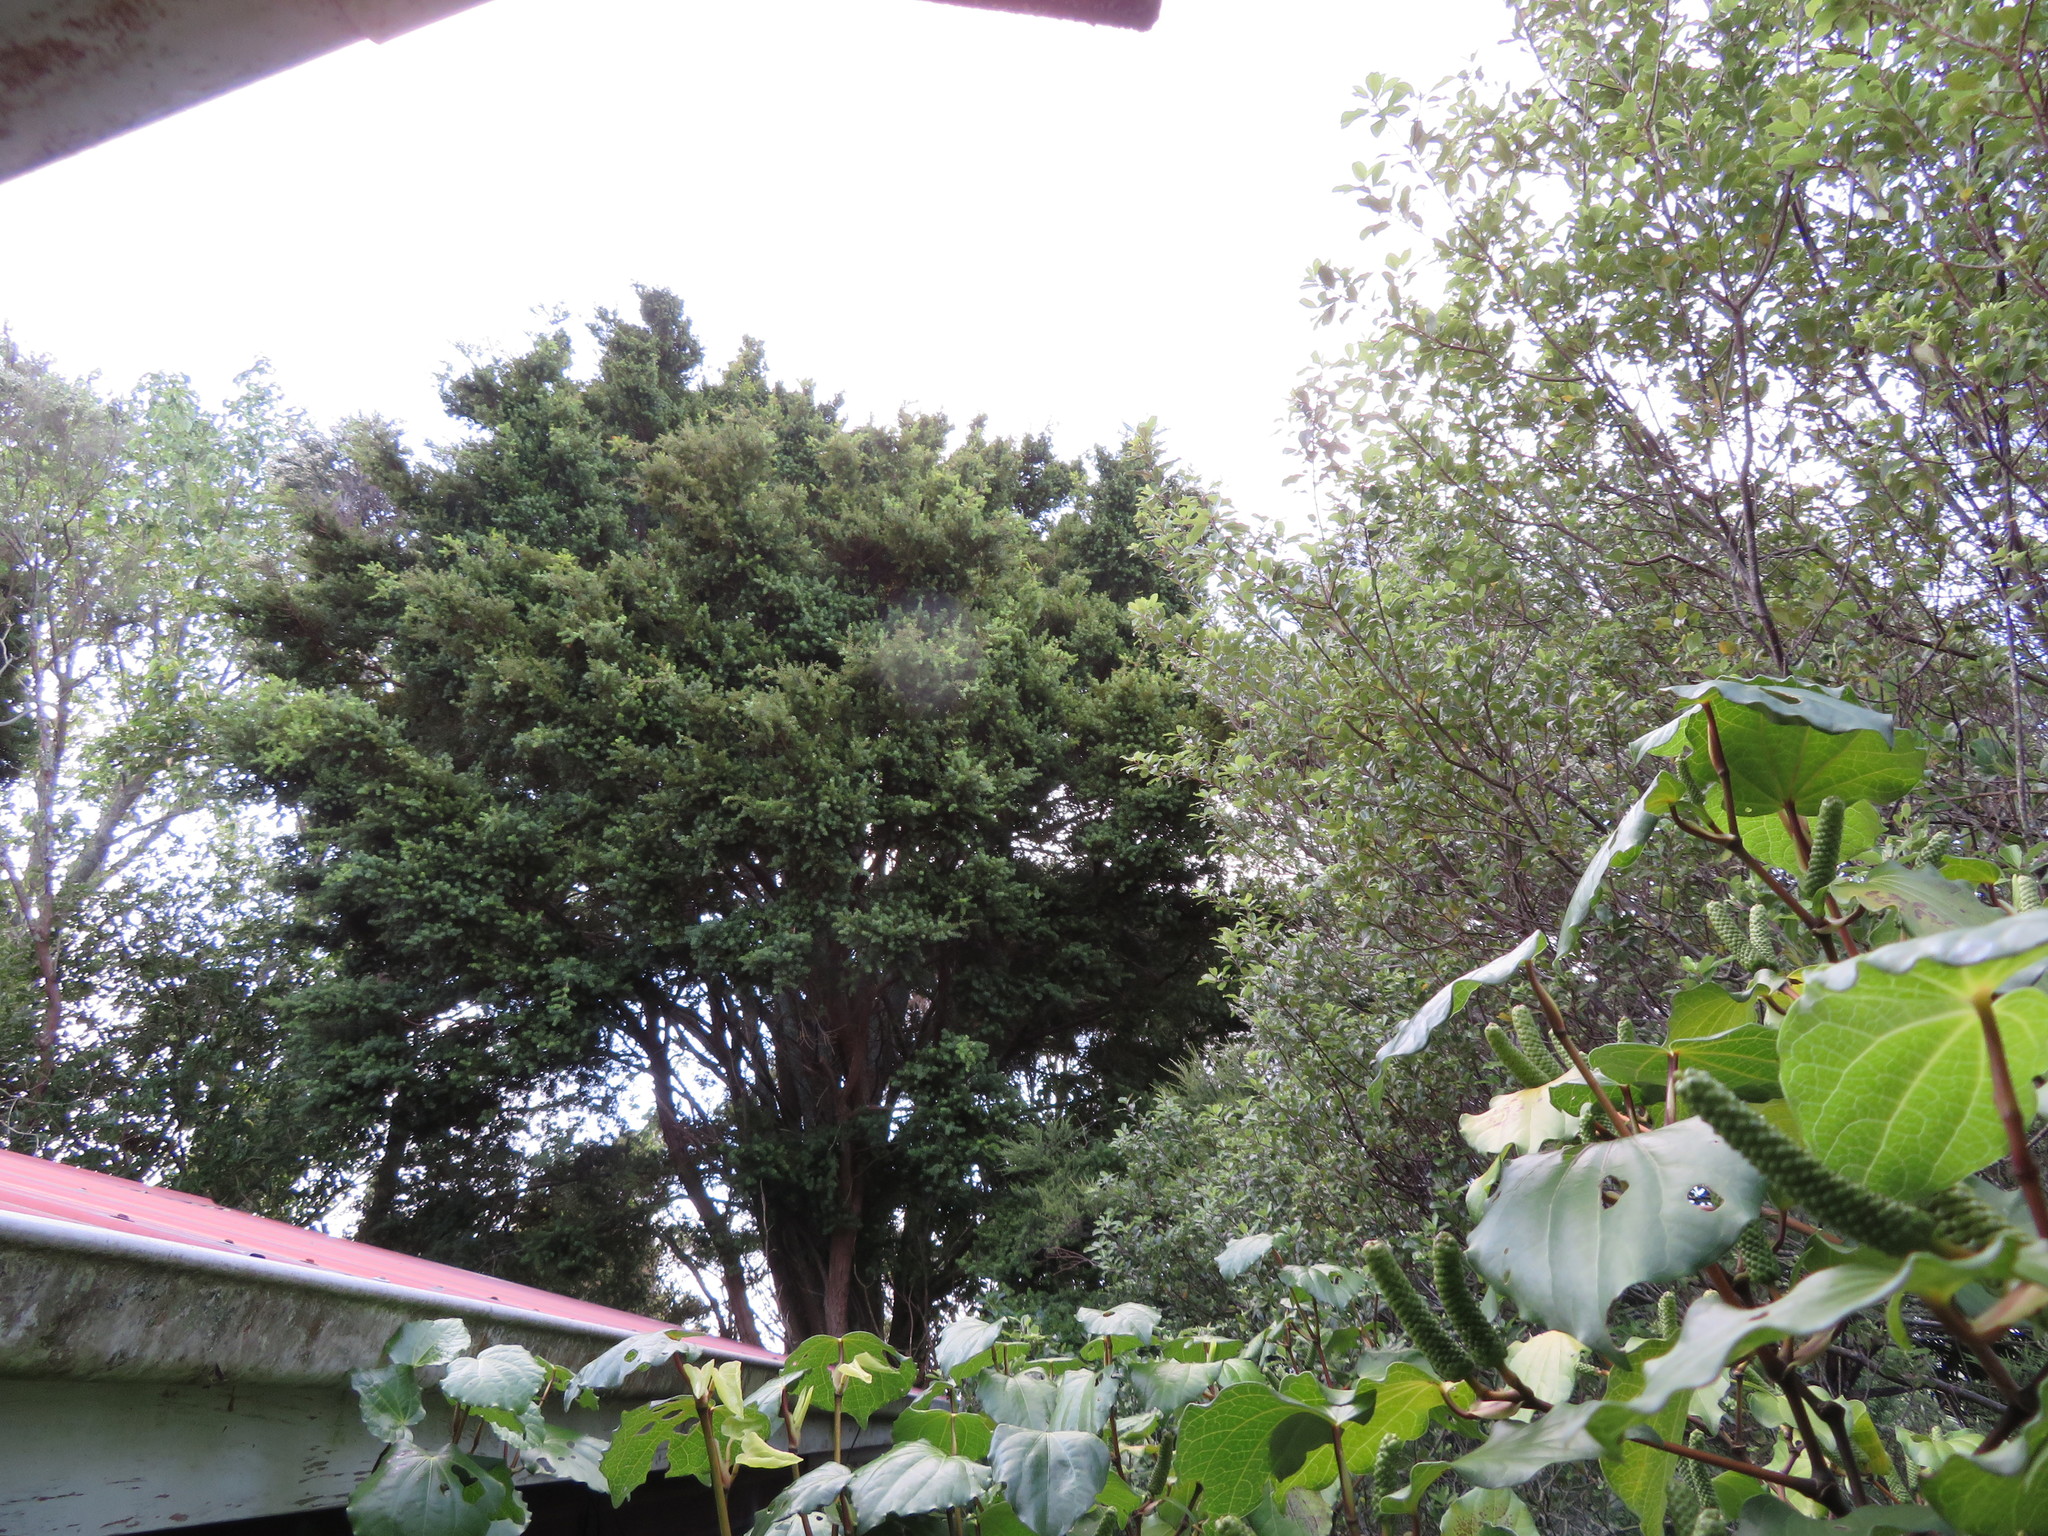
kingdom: Plantae
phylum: Tracheophyta
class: Pinopsida
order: Pinales
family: Podocarpaceae
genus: Podocarpus
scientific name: Podocarpus totara
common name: Totara
